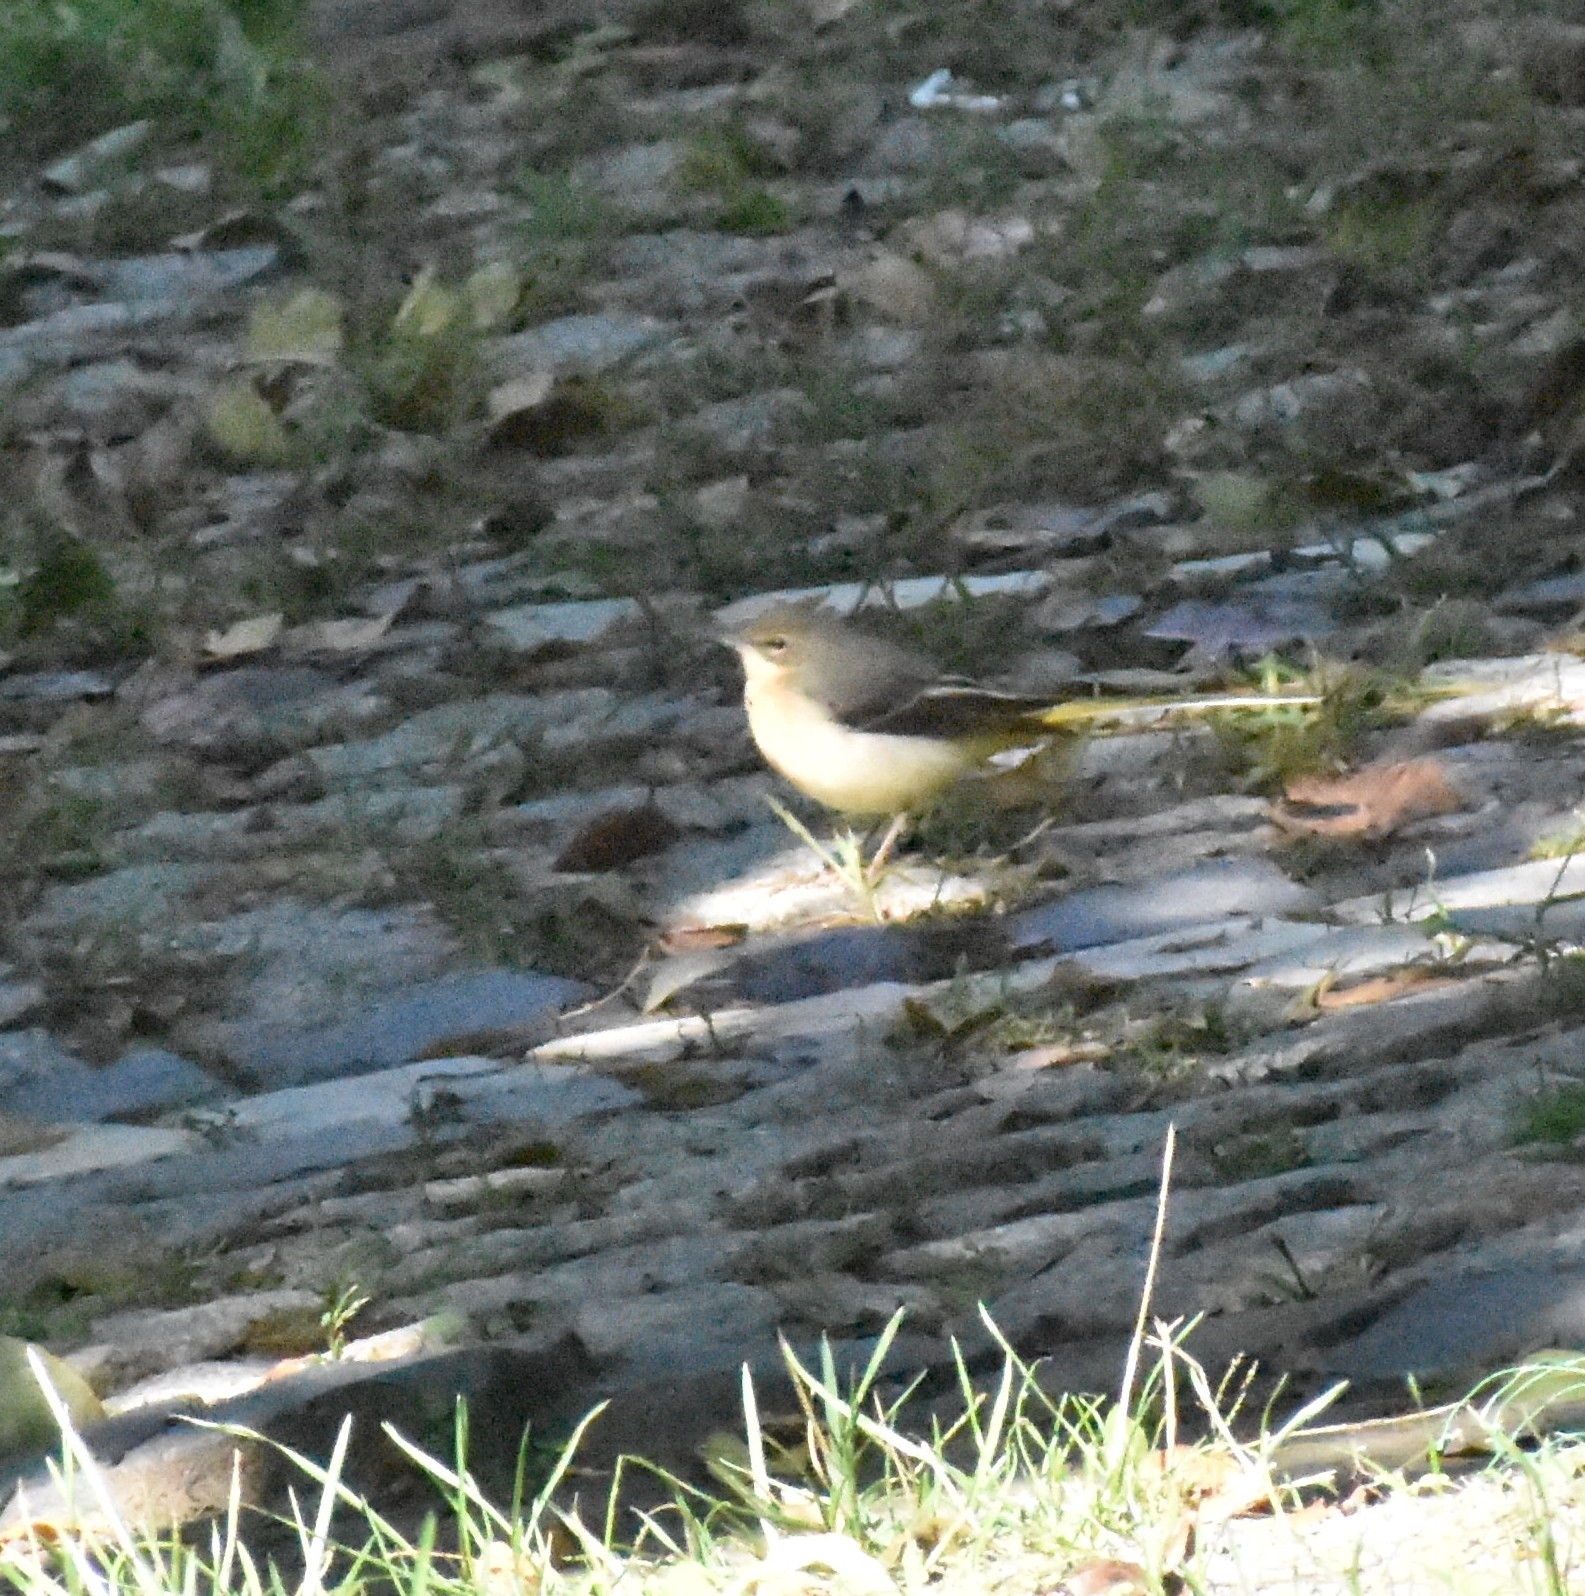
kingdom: Animalia
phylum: Chordata
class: Aves
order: Passeriformes
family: Motacillidae
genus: Motacilla
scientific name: Motacilla cinerea
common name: Grey wagtail
